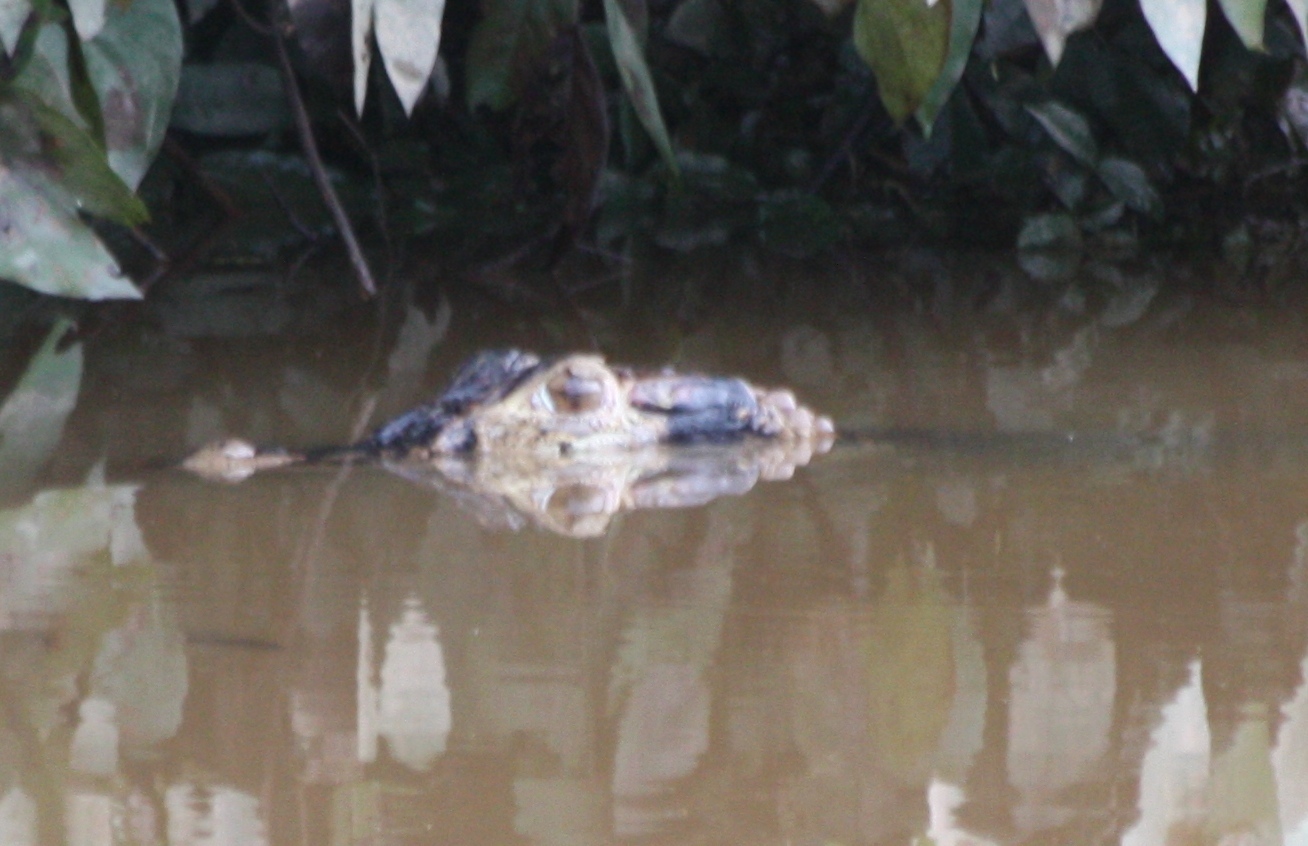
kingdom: Animalia
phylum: Chordata
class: Crocodylia
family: Alligatoridae
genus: Melanosuchus
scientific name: Melanosuchus niger
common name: Black caiman
